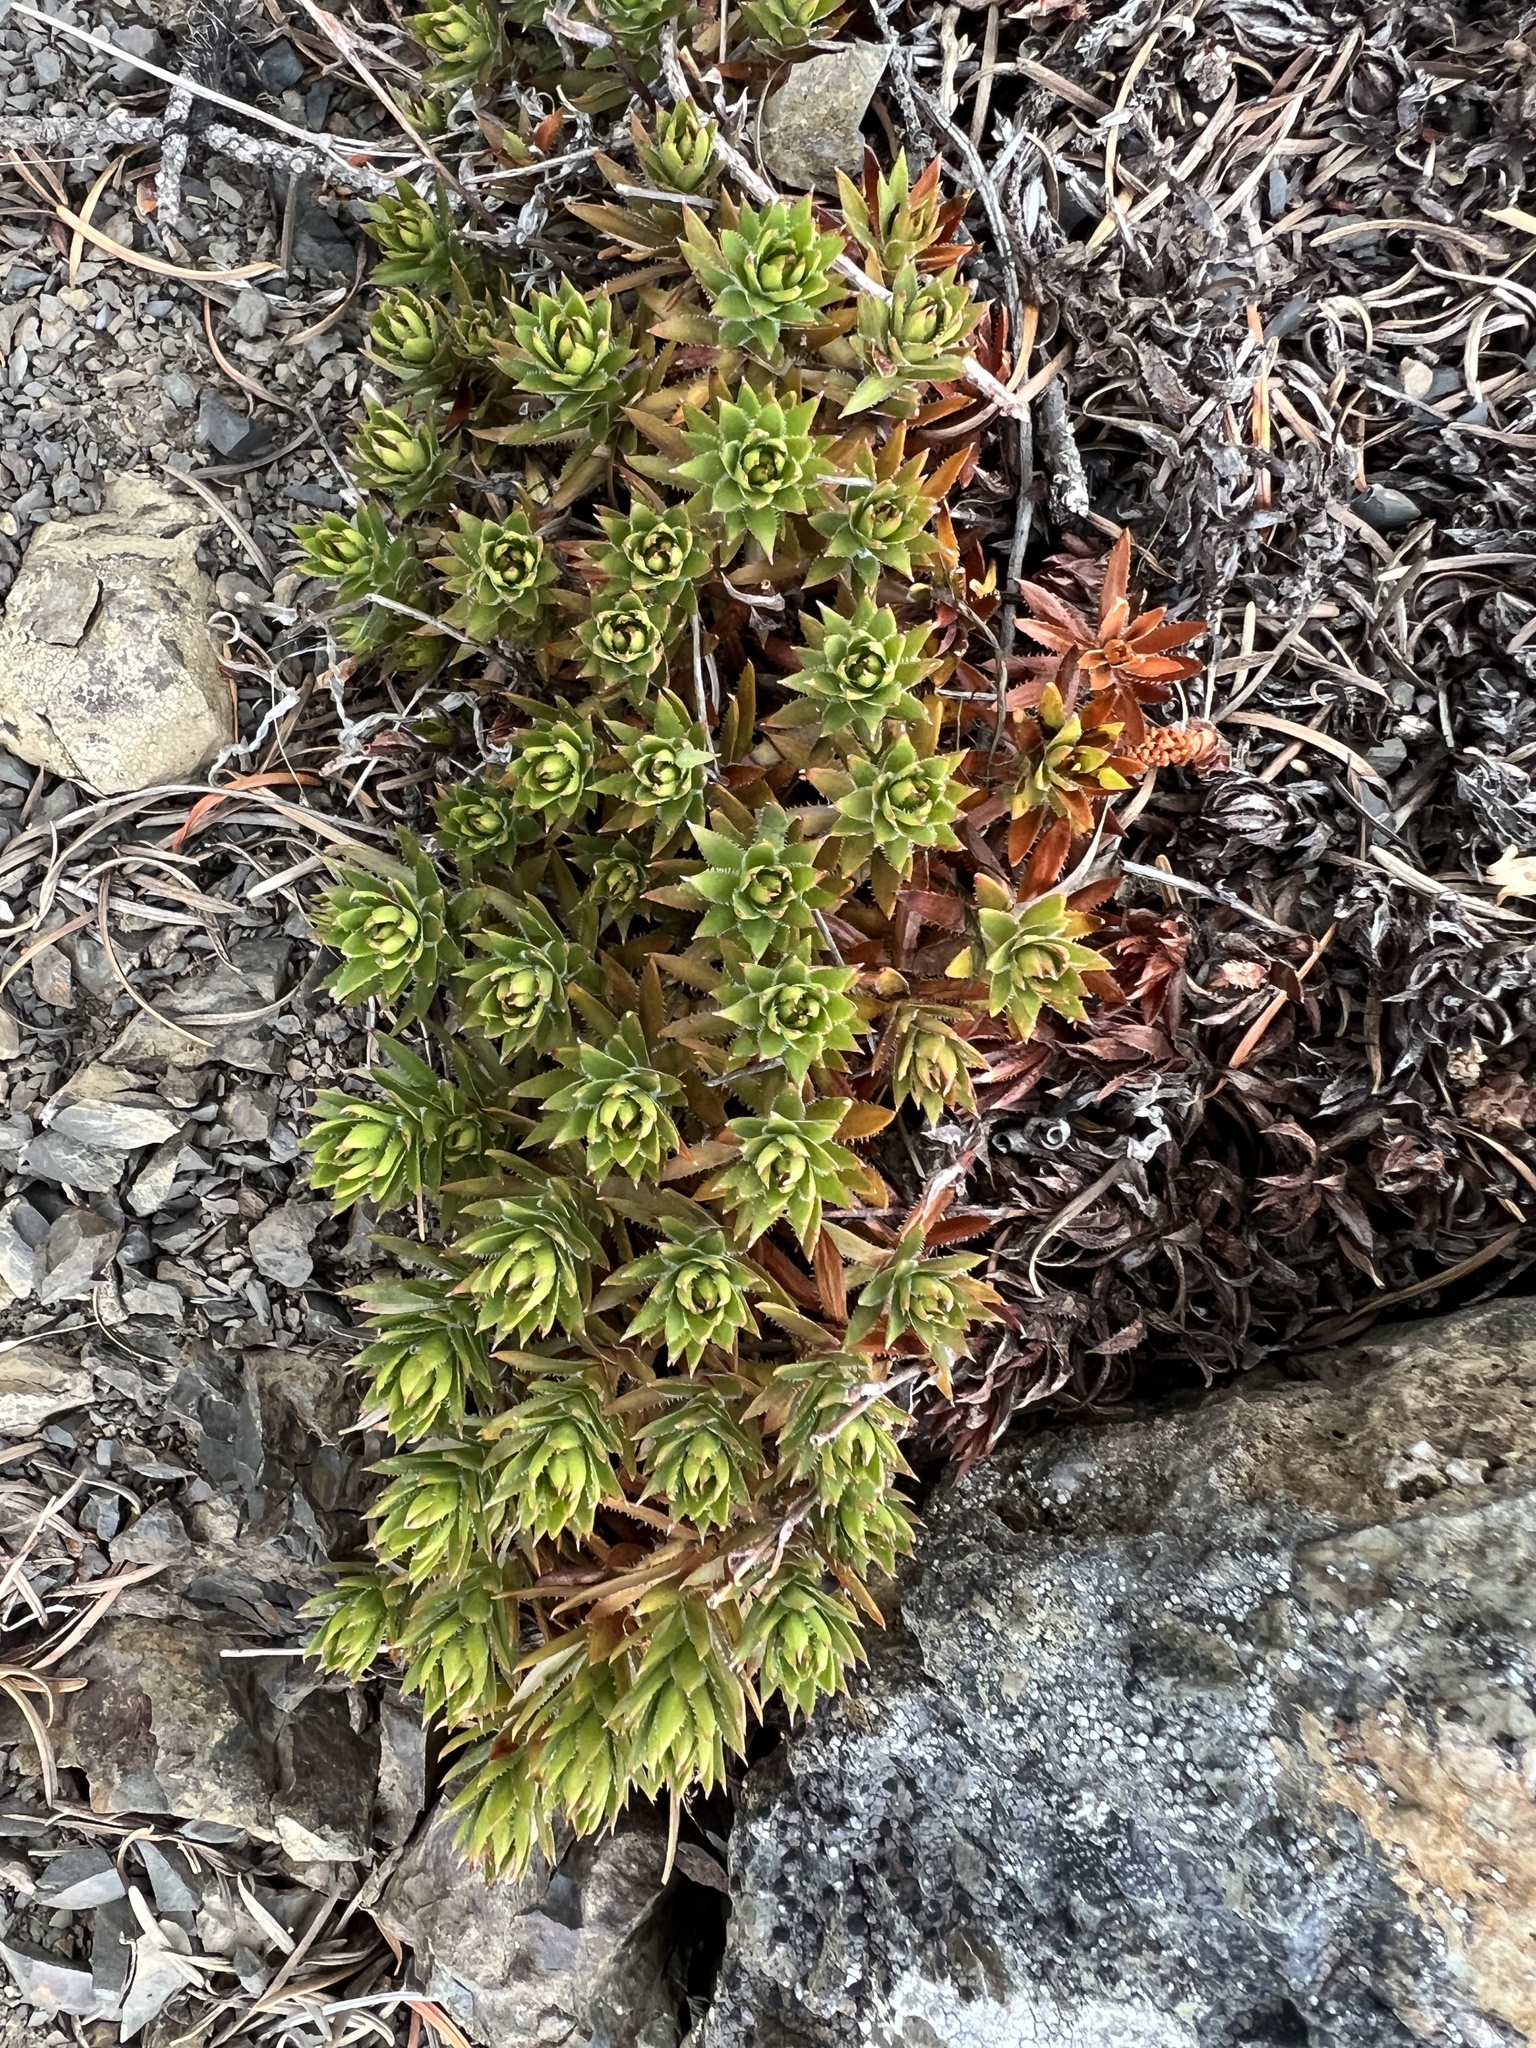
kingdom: Plantae
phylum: Tracheophyta
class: Magnoliopsida
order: Saxifragales
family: Saxifragaceae
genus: Saxifraga
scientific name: Saxifraga bronchialis
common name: Matted saxifrage
